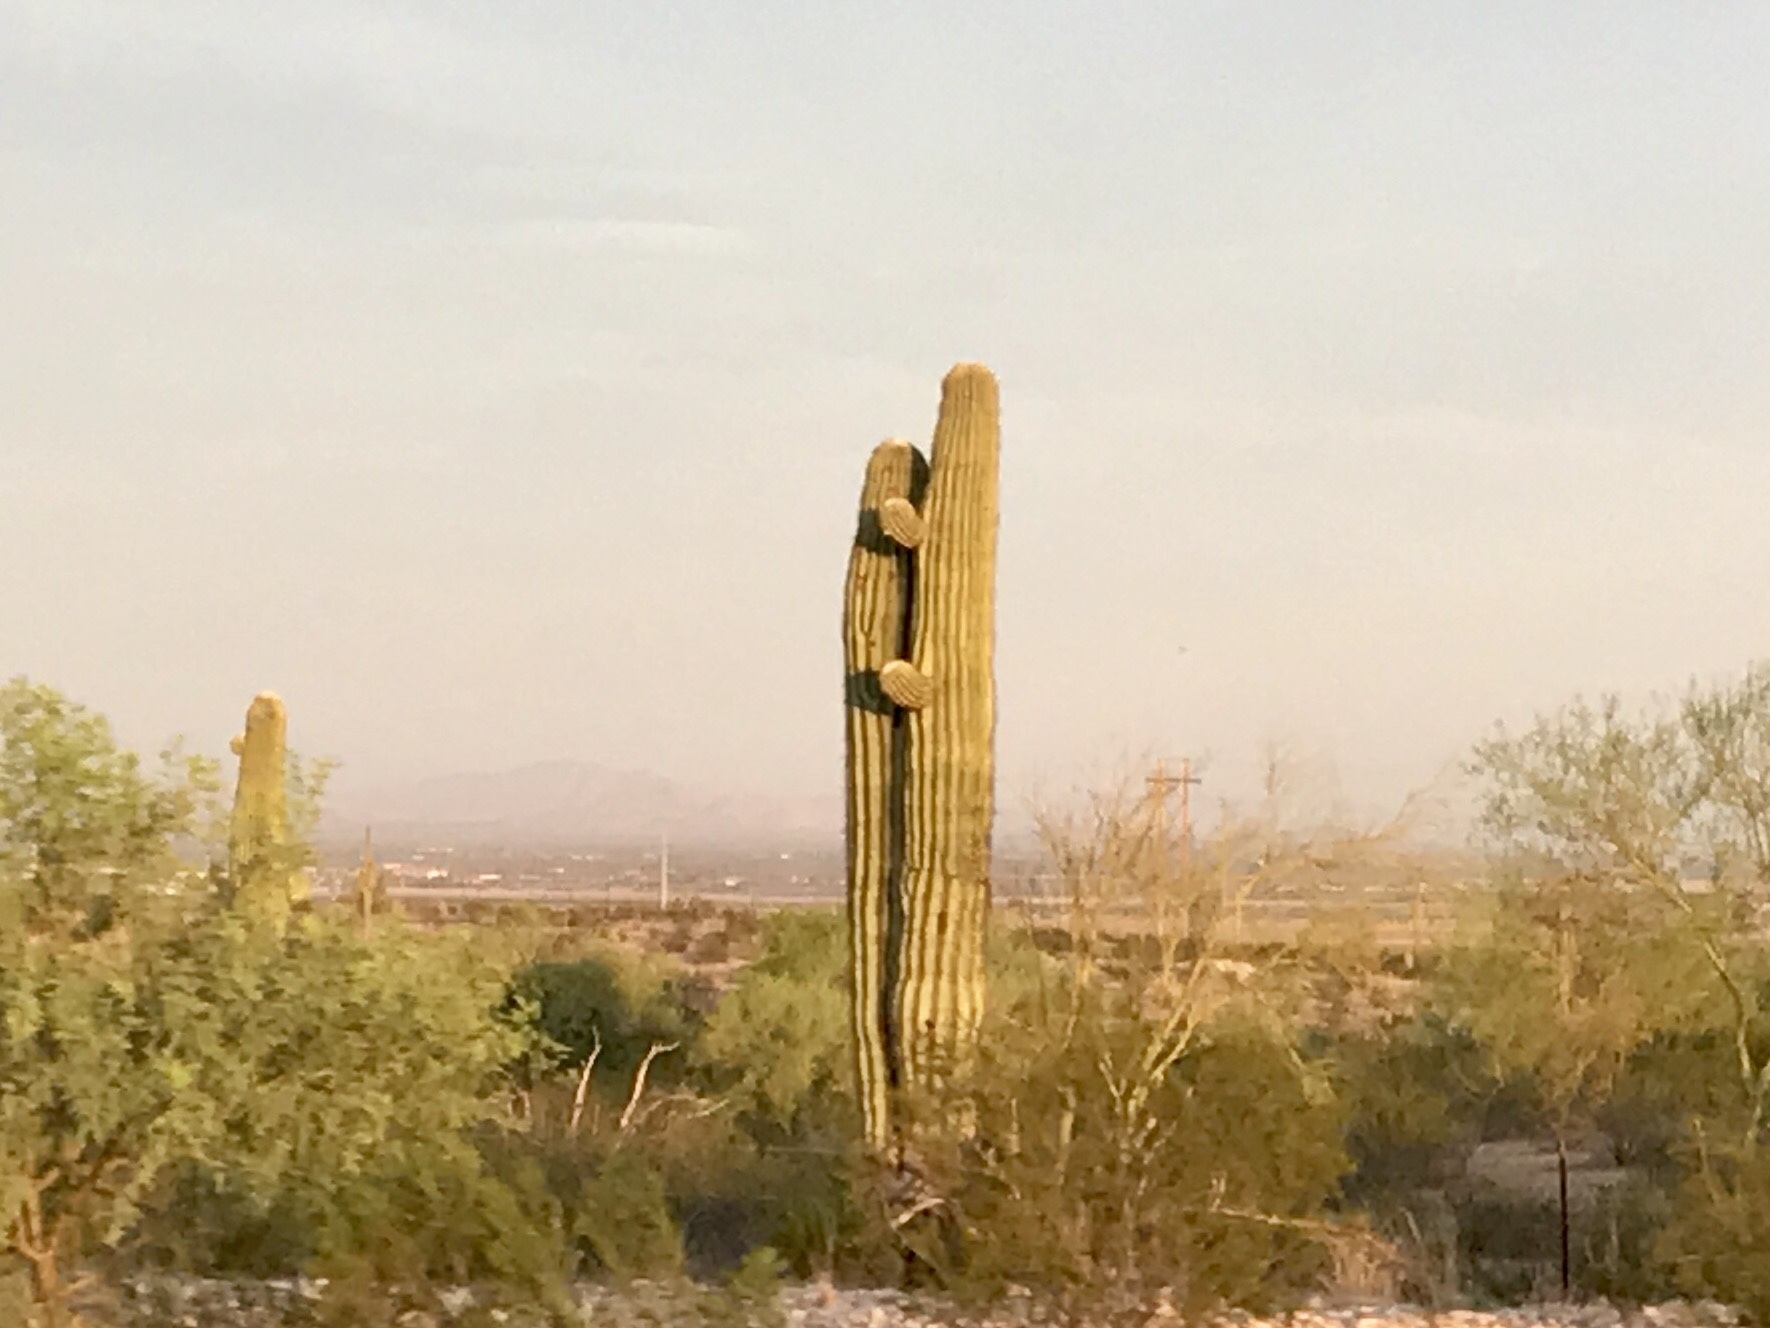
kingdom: Plantae
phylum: Tracheophyta
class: Magnoliopsida
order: Caryophyllales
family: Cactaceae
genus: Carnegiea
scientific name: Carnegiea gigantea
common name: Saguaro
